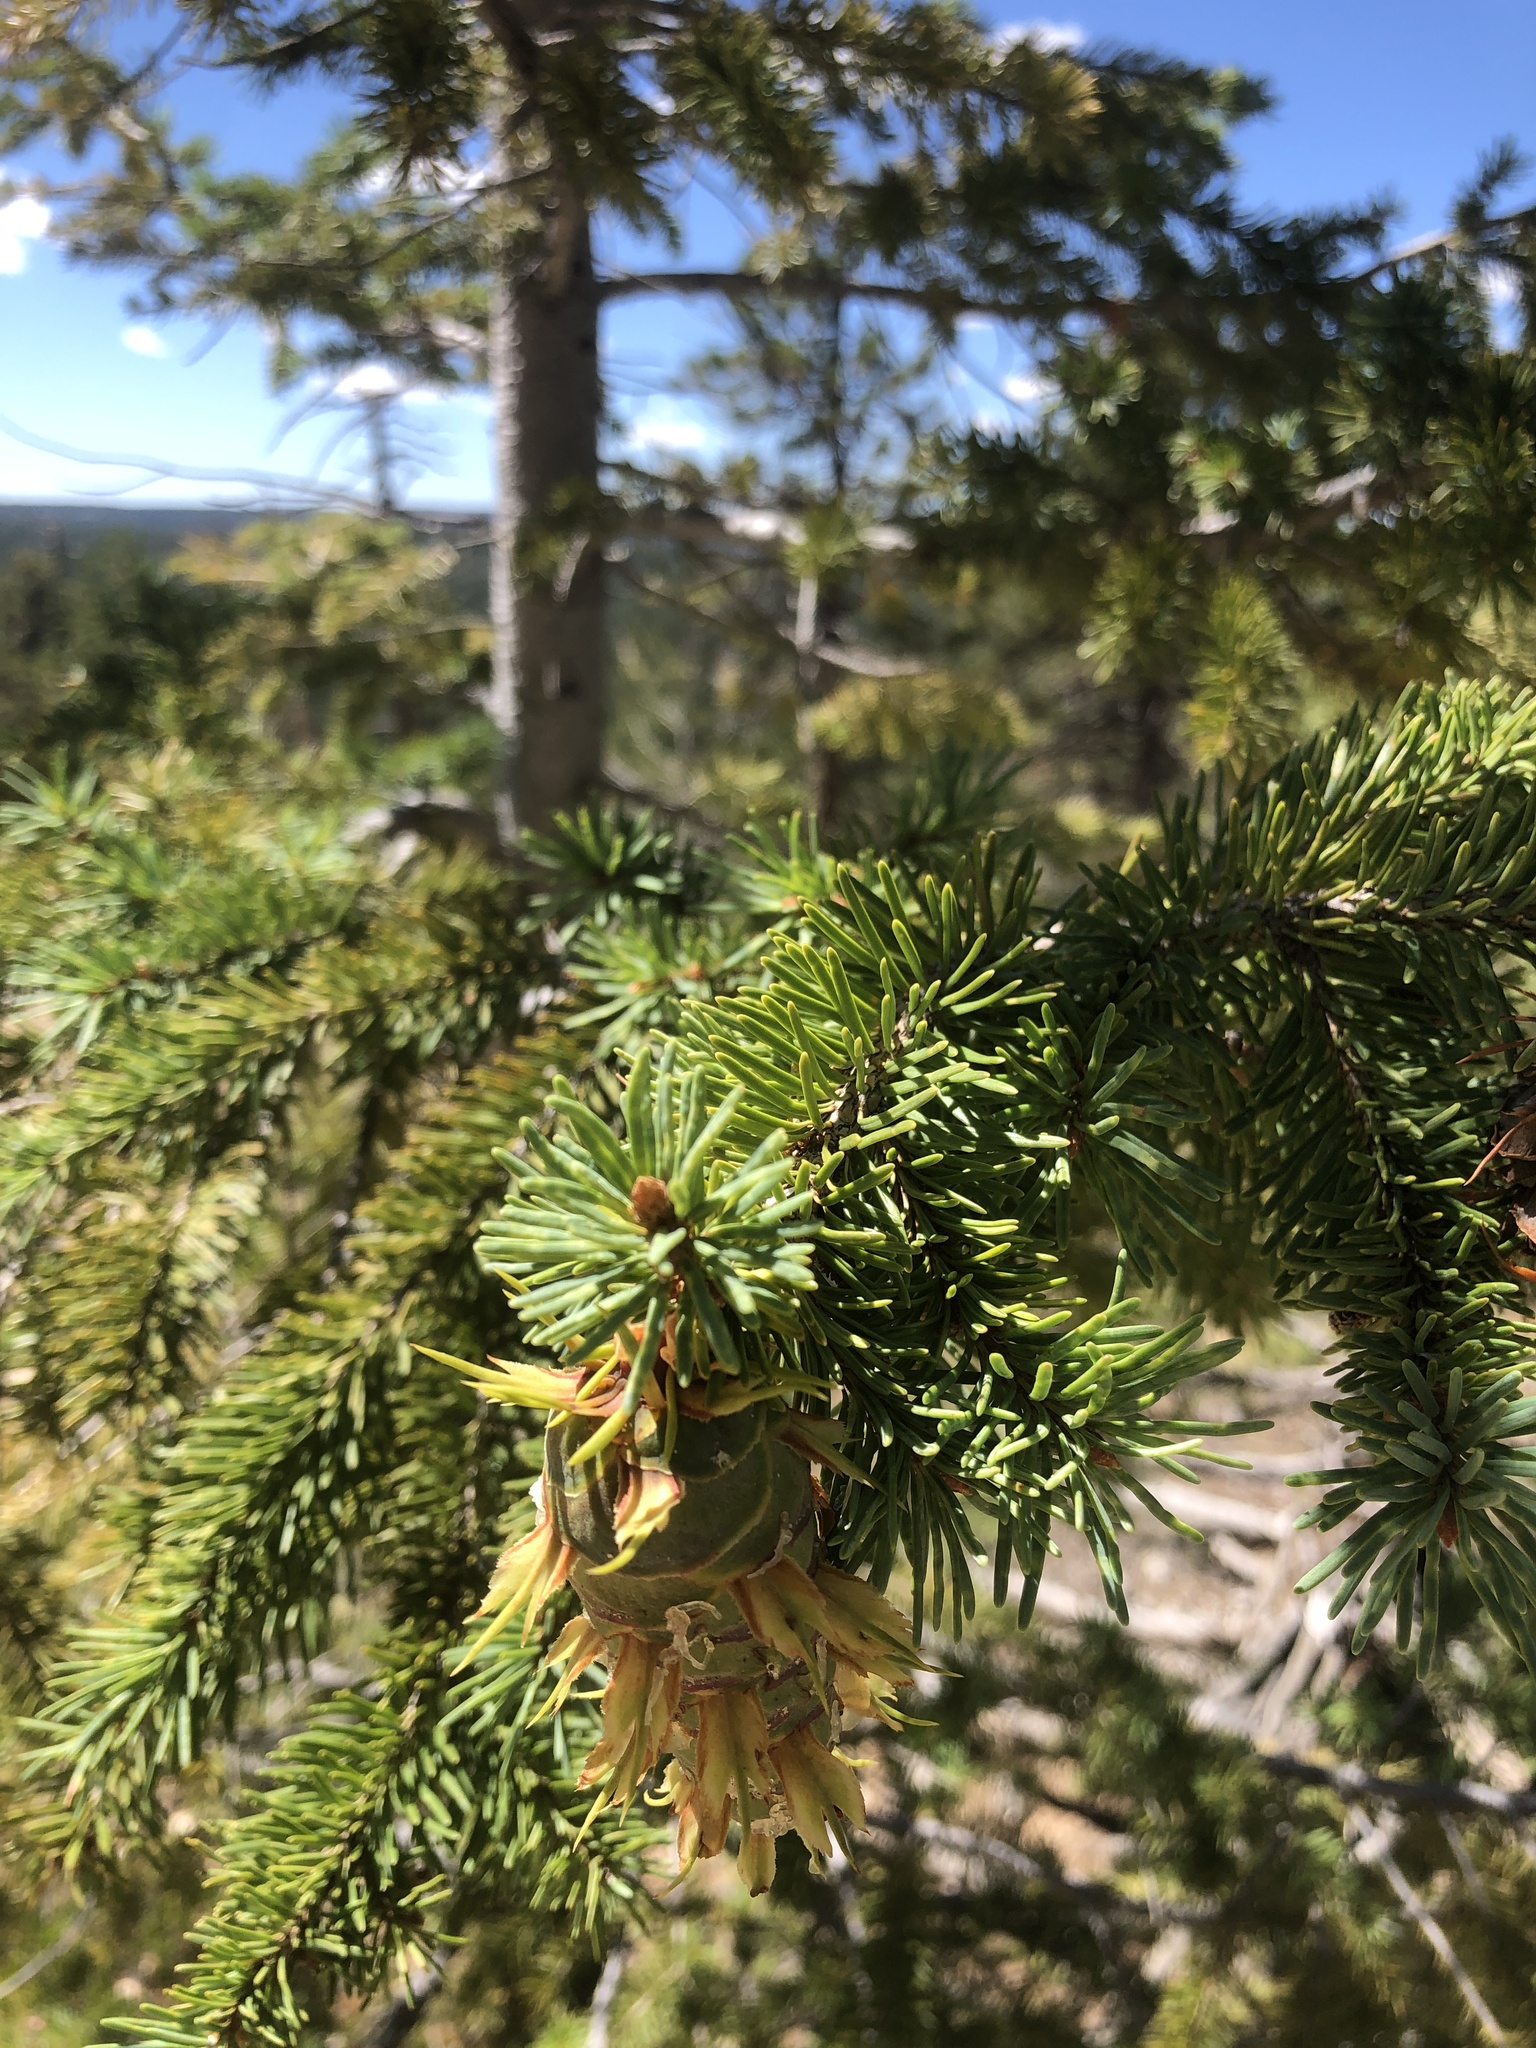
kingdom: Plantae
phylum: Tracheophyta
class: Pinopsida
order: Pinales
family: Pinaceae
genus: Pseudotsuga
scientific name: Pseudotsuga menziesii
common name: Douglas fir
